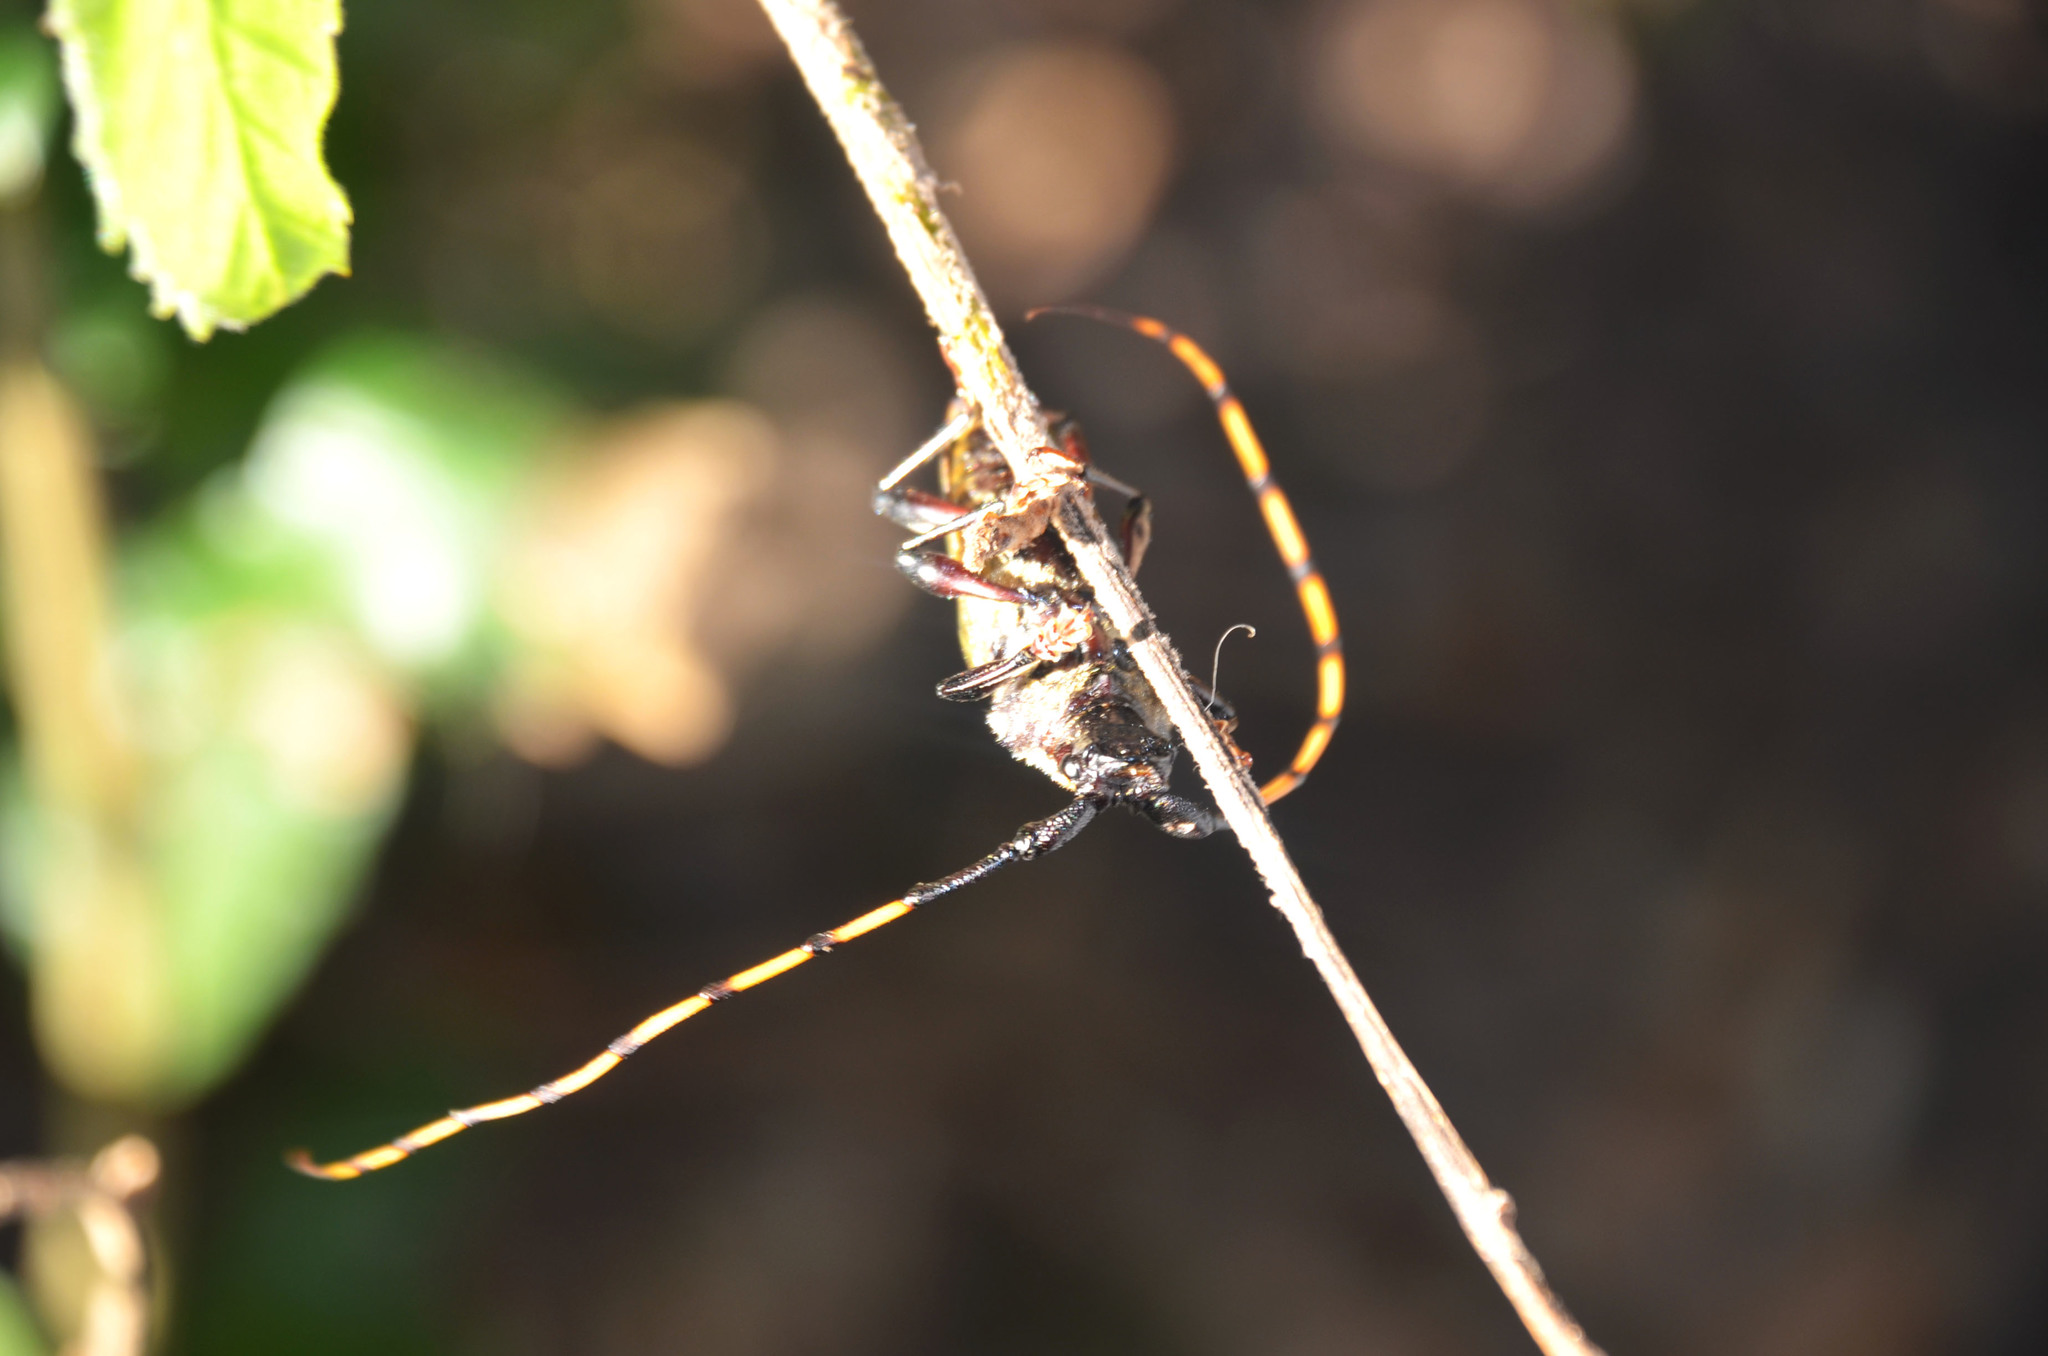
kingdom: Animalia
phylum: Arthropoda
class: Insecta
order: Coleoptera
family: Cerambycidae
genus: Retrachydes
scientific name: Retrachydes thoracicus
